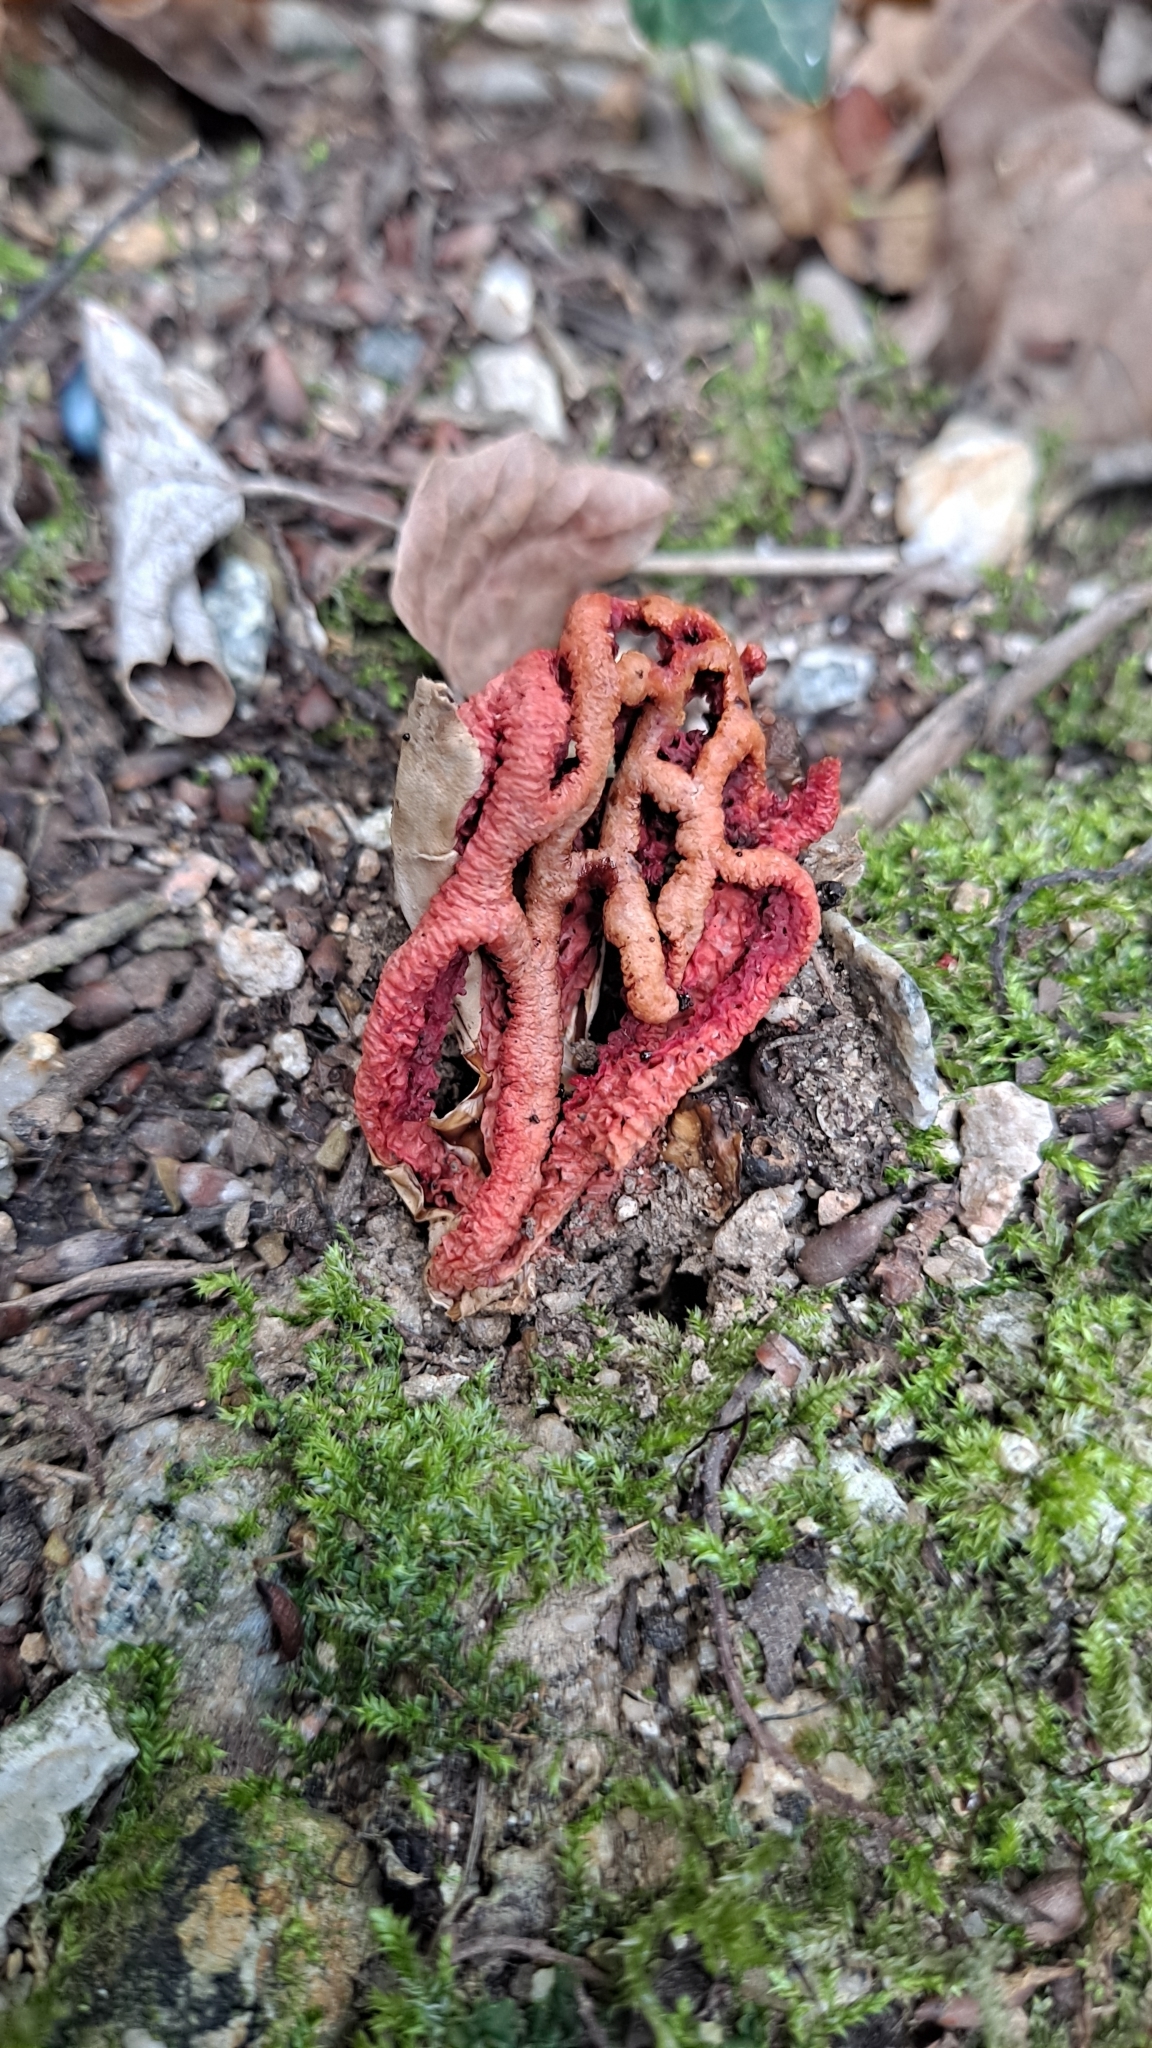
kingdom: Fungi
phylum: Basidiomycota
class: Agaricomycetes
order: Phallales
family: Phallaceae
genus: Clathrus
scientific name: Clathrus ruber
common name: Red cage
